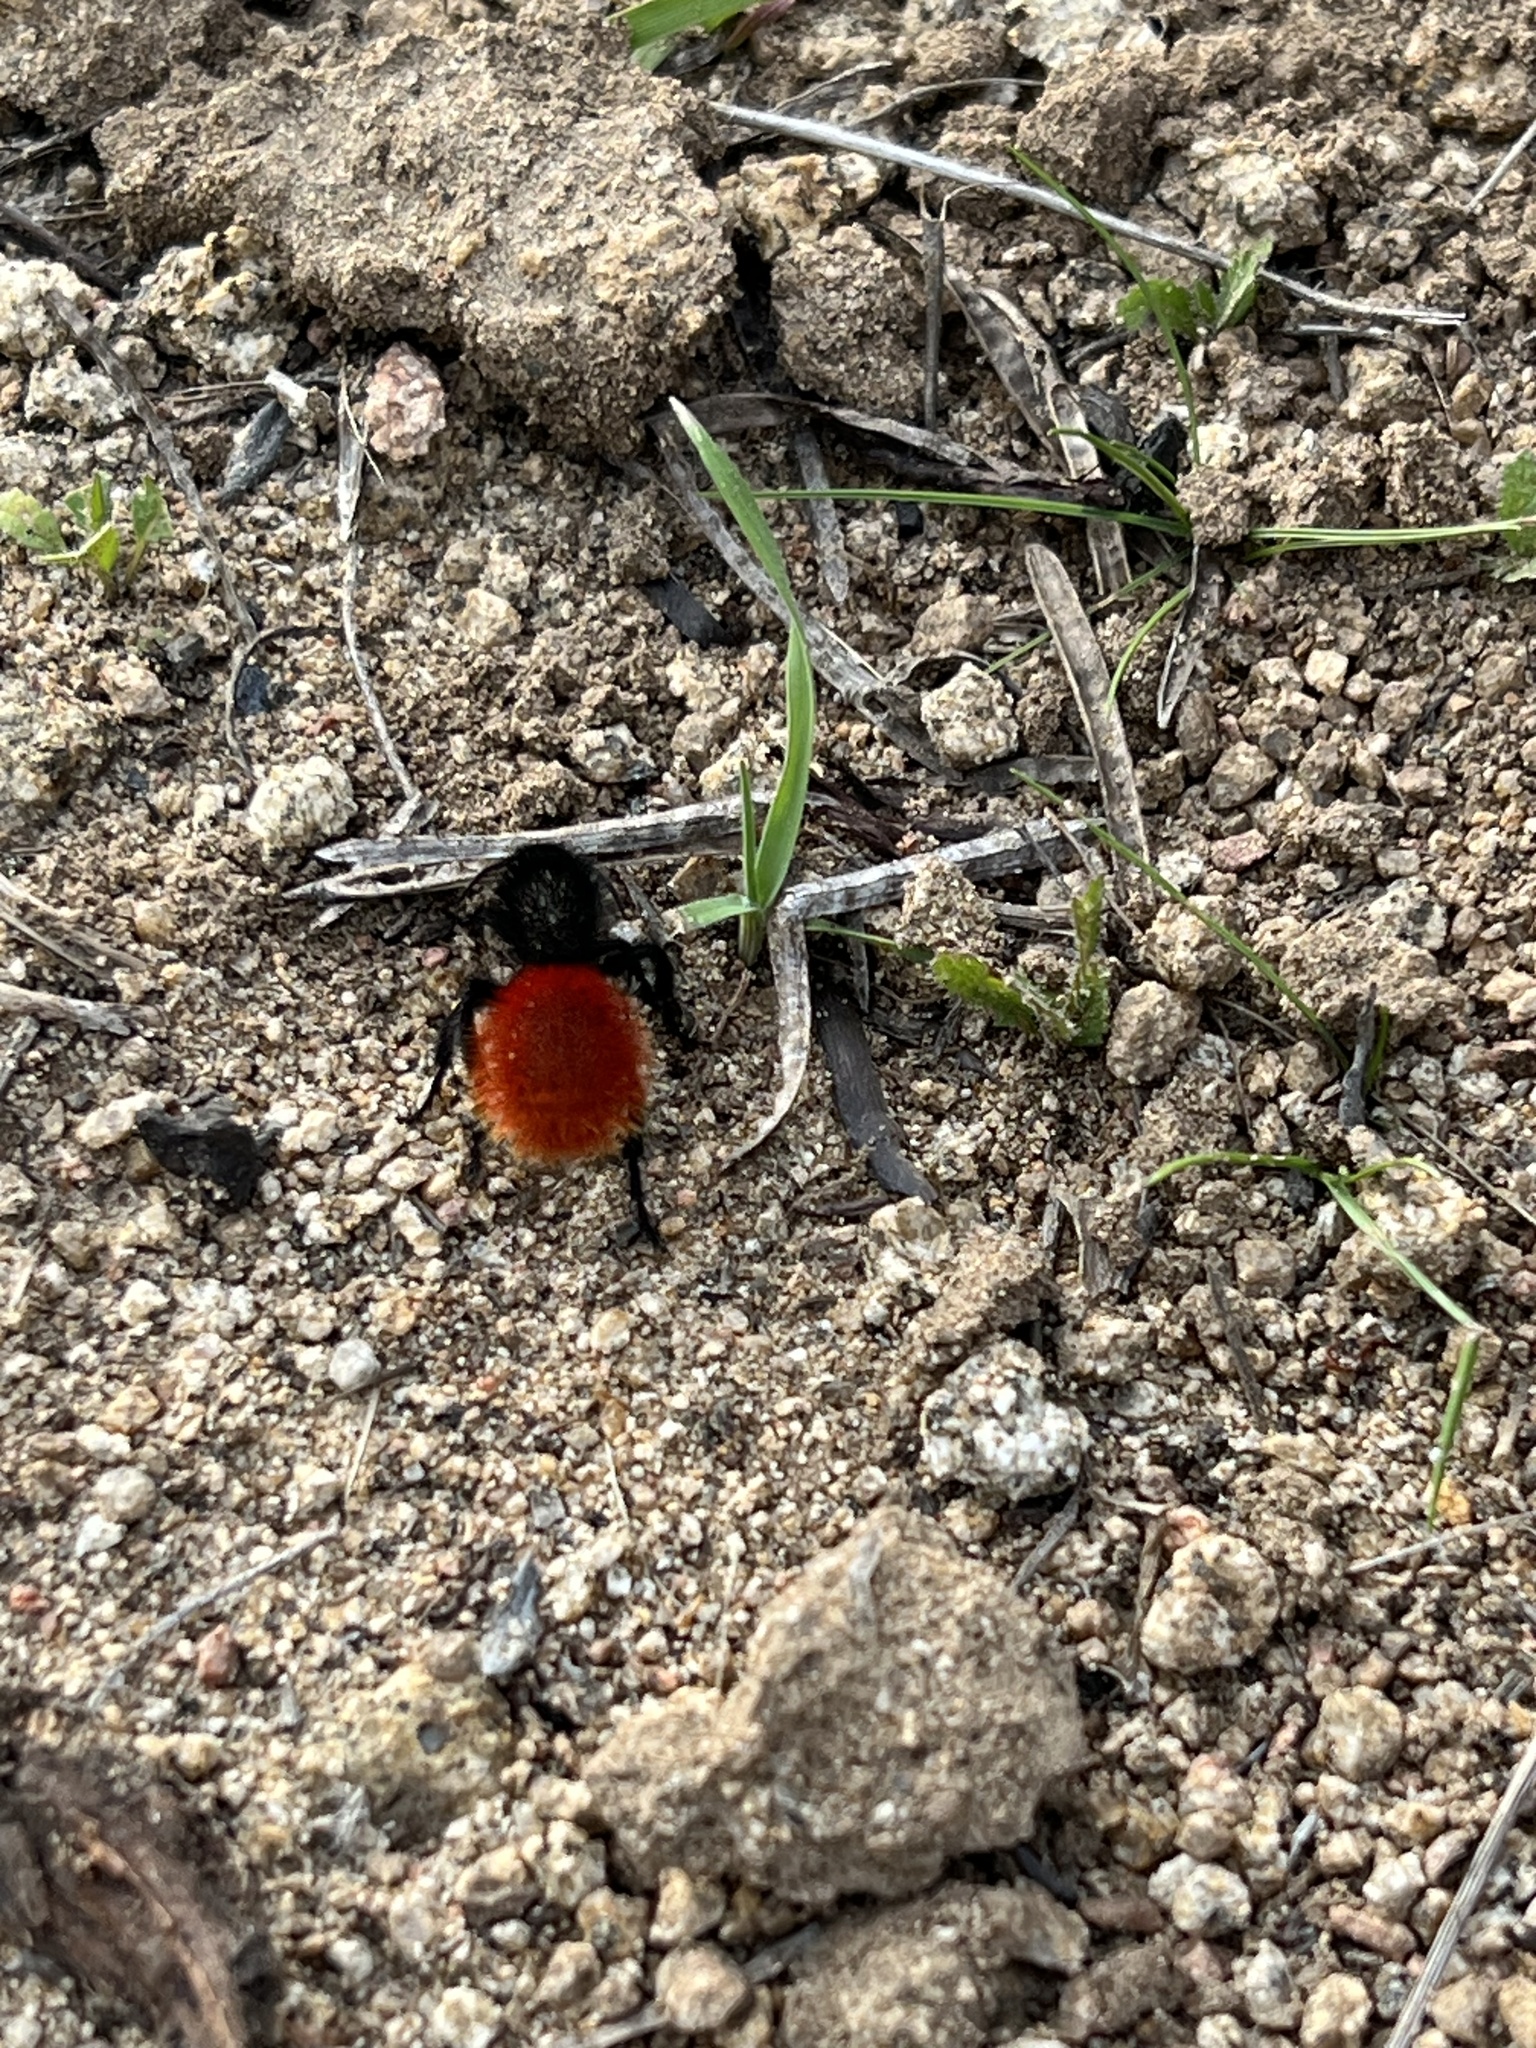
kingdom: Animalia
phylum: Arthropoda
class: Insecta
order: Hymenoptera
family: Mutillidae
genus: Dasymutilla
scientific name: Dasymutilla magnifica
